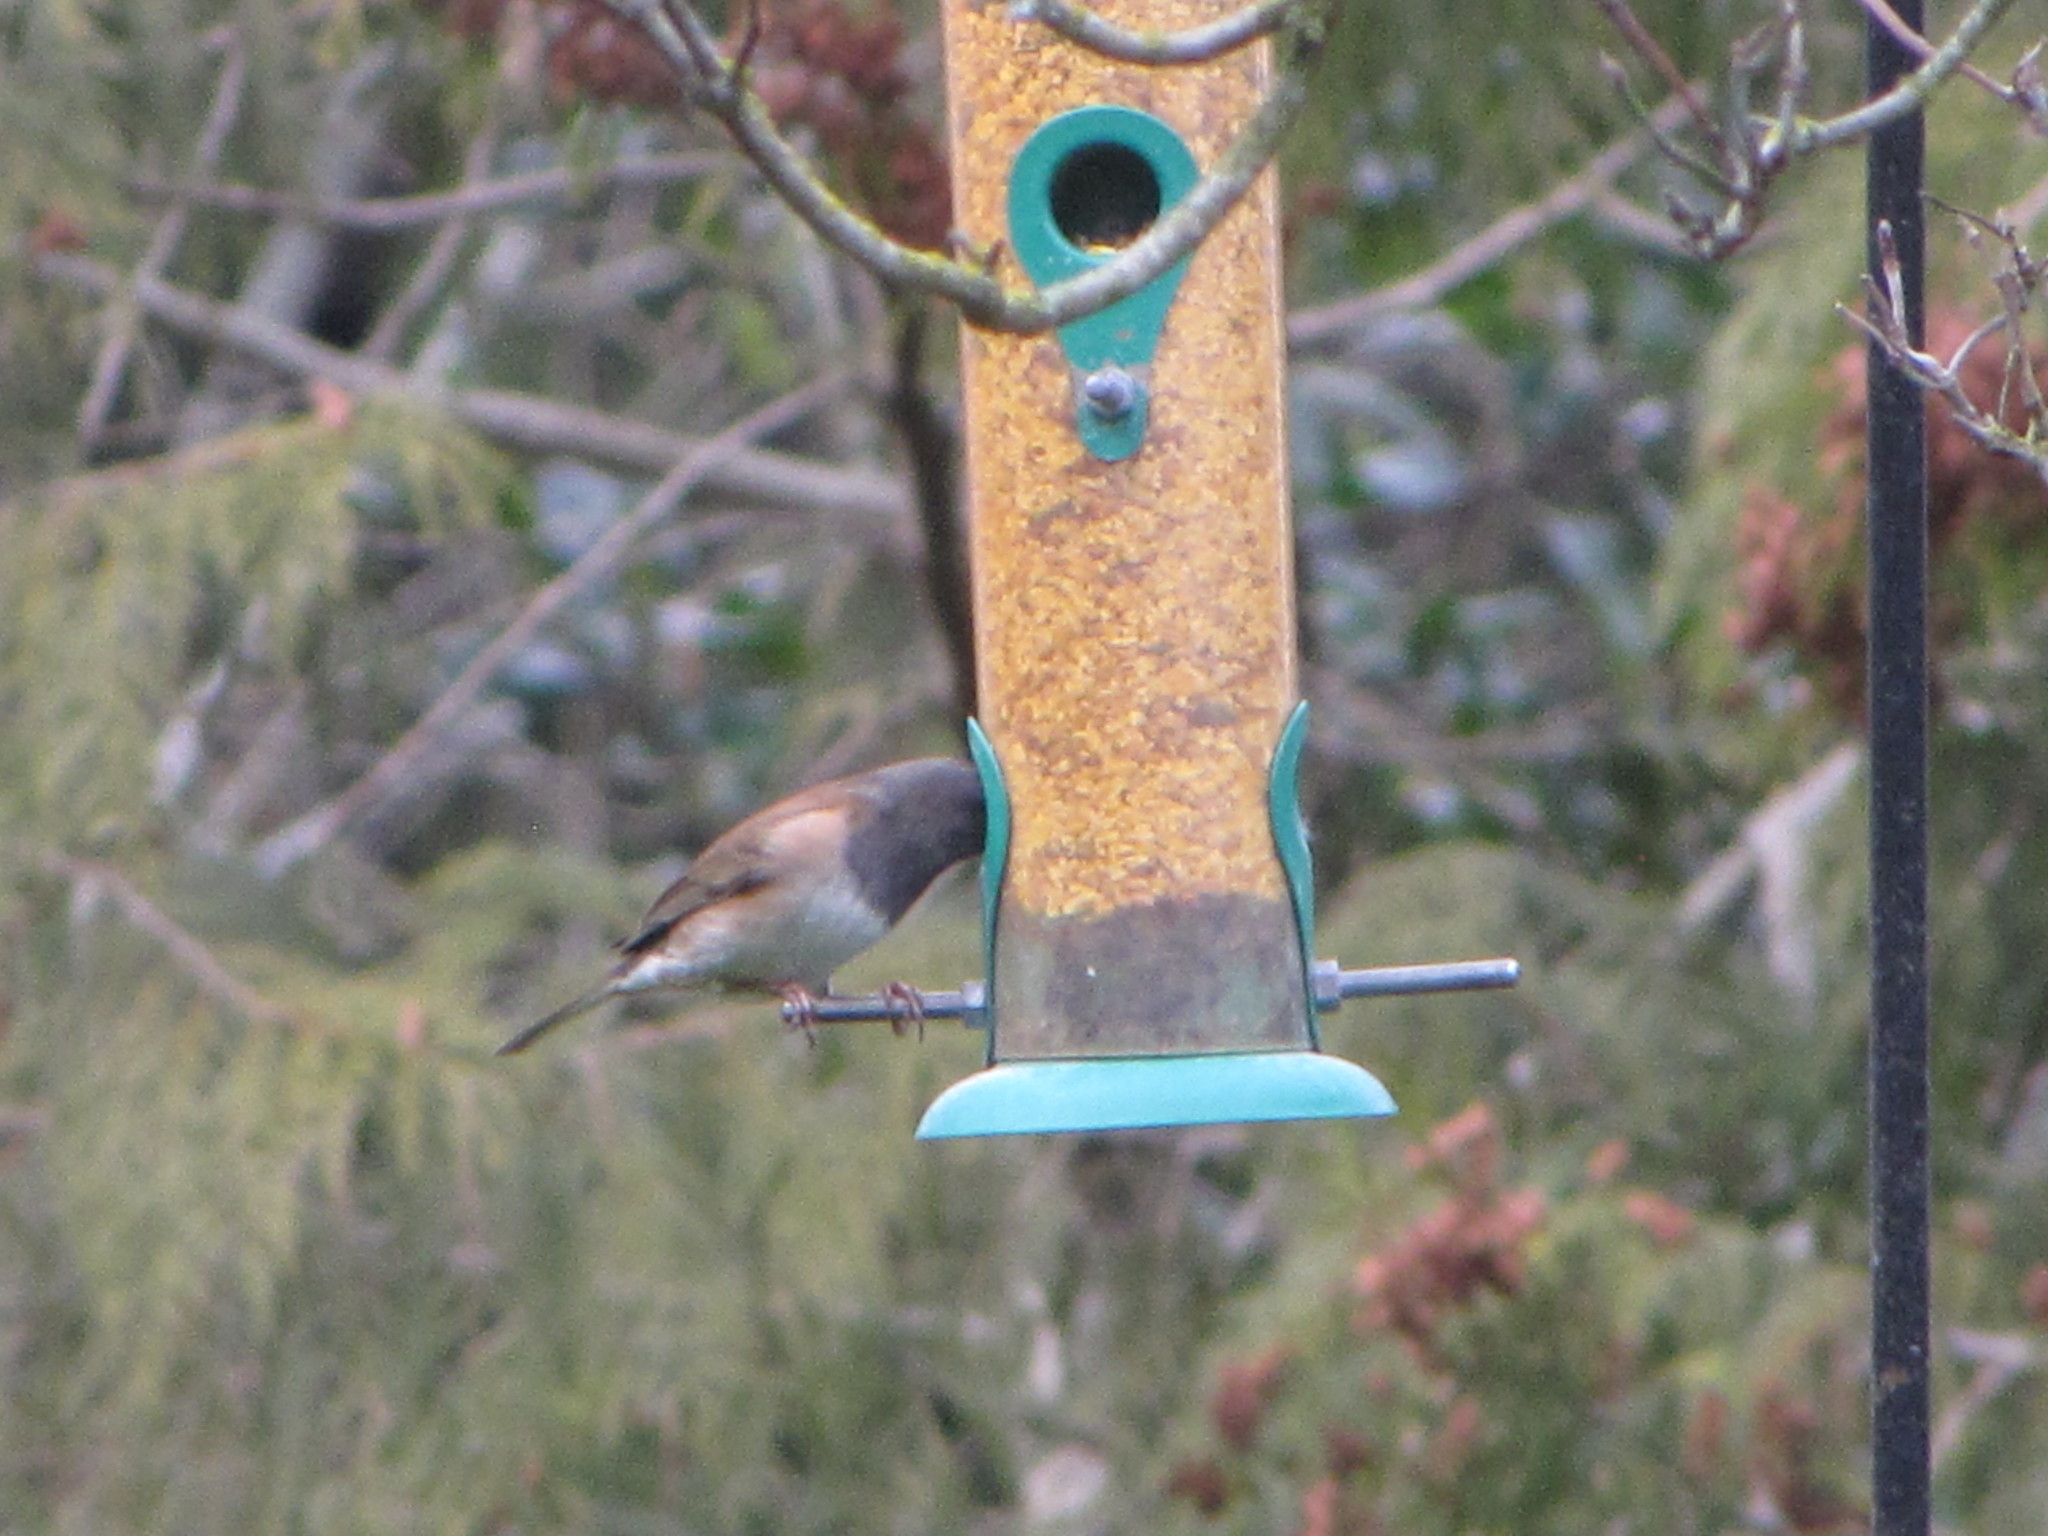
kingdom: Animalia
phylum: Chordata
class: Aves
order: Passeriformes
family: Passerellidae
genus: Junco
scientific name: Junco hyemalis
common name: Dark-eyed junco
